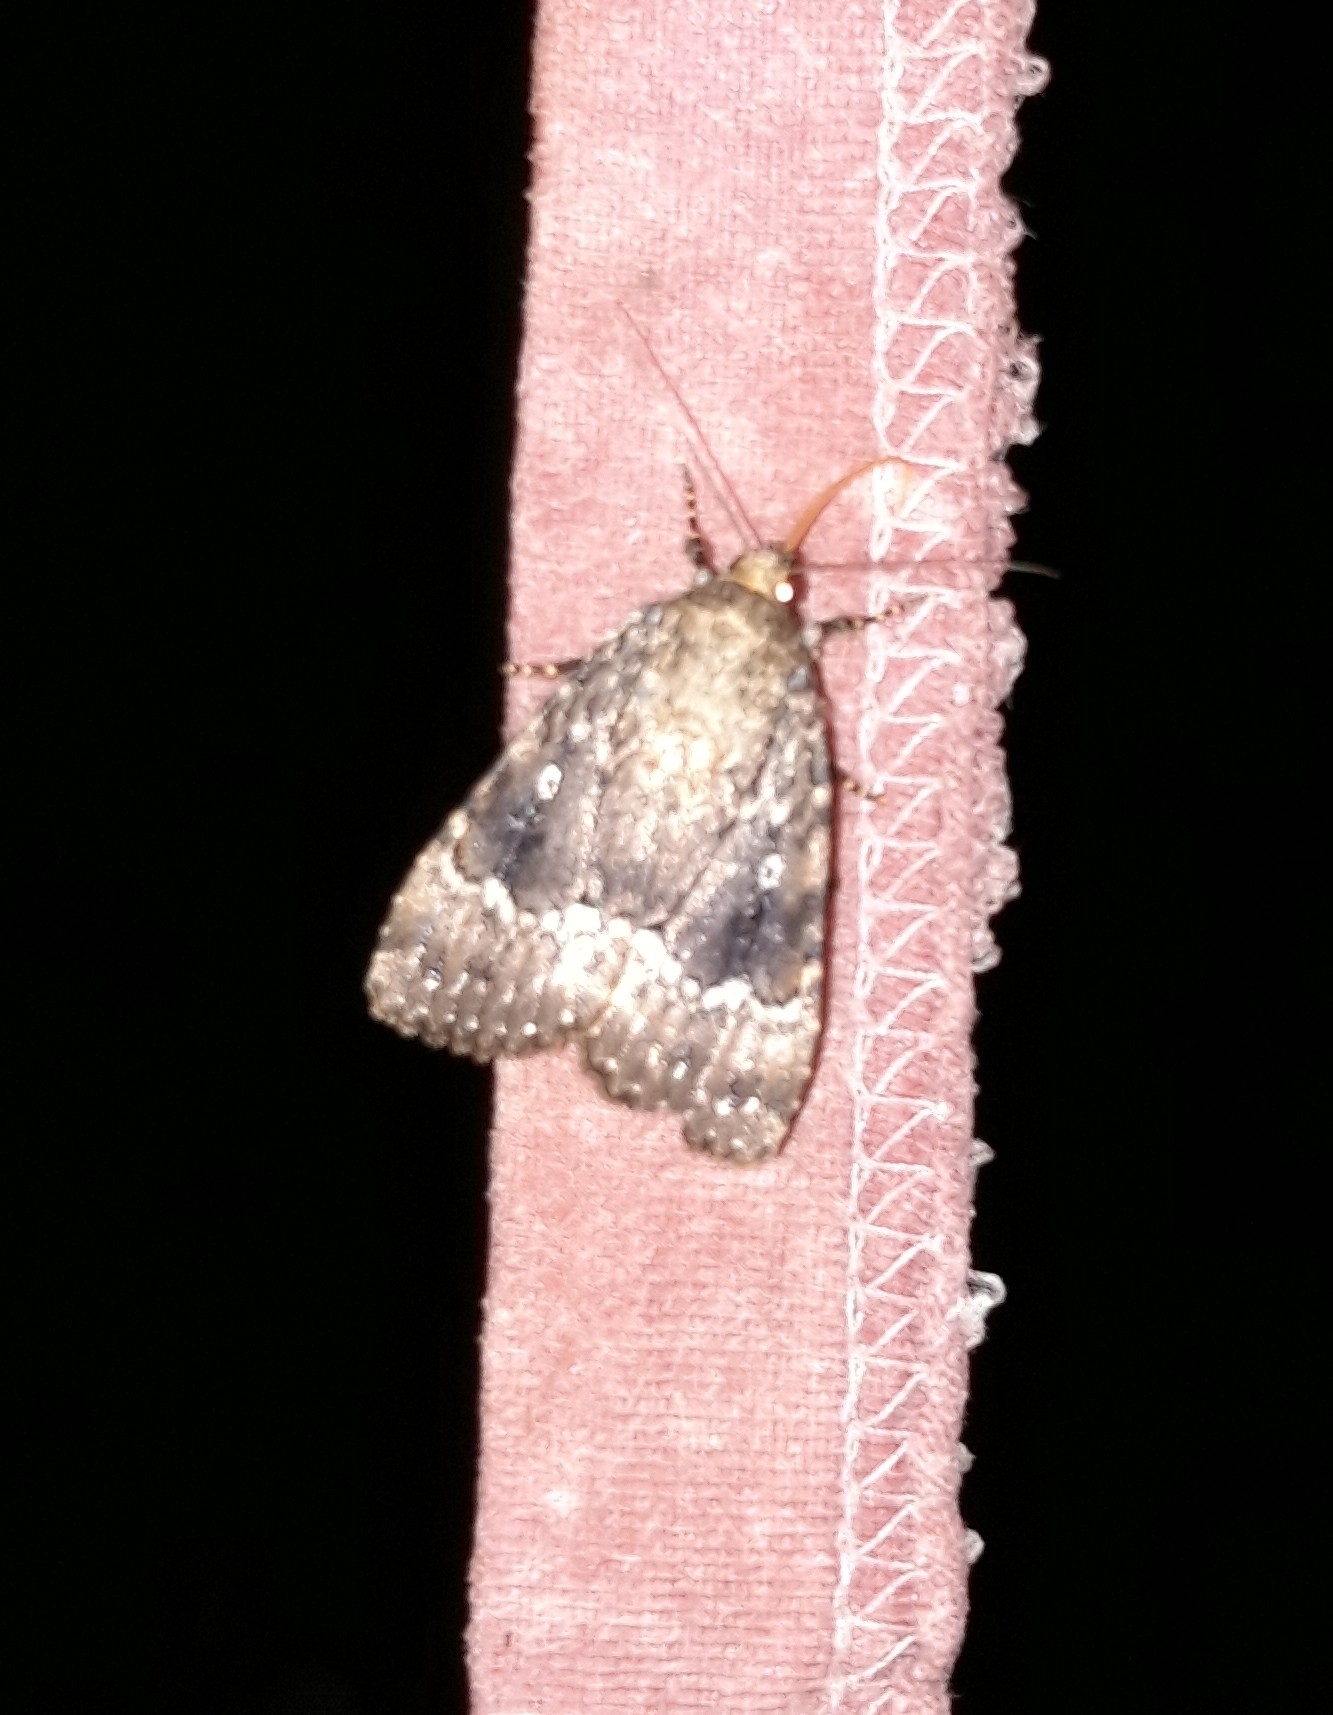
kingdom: Animalia
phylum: Arthropoda
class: Insecta
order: Lepidoptera
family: Noctuidae
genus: Amphipyra
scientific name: Amphipyra pyramidea
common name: Copper underwing
